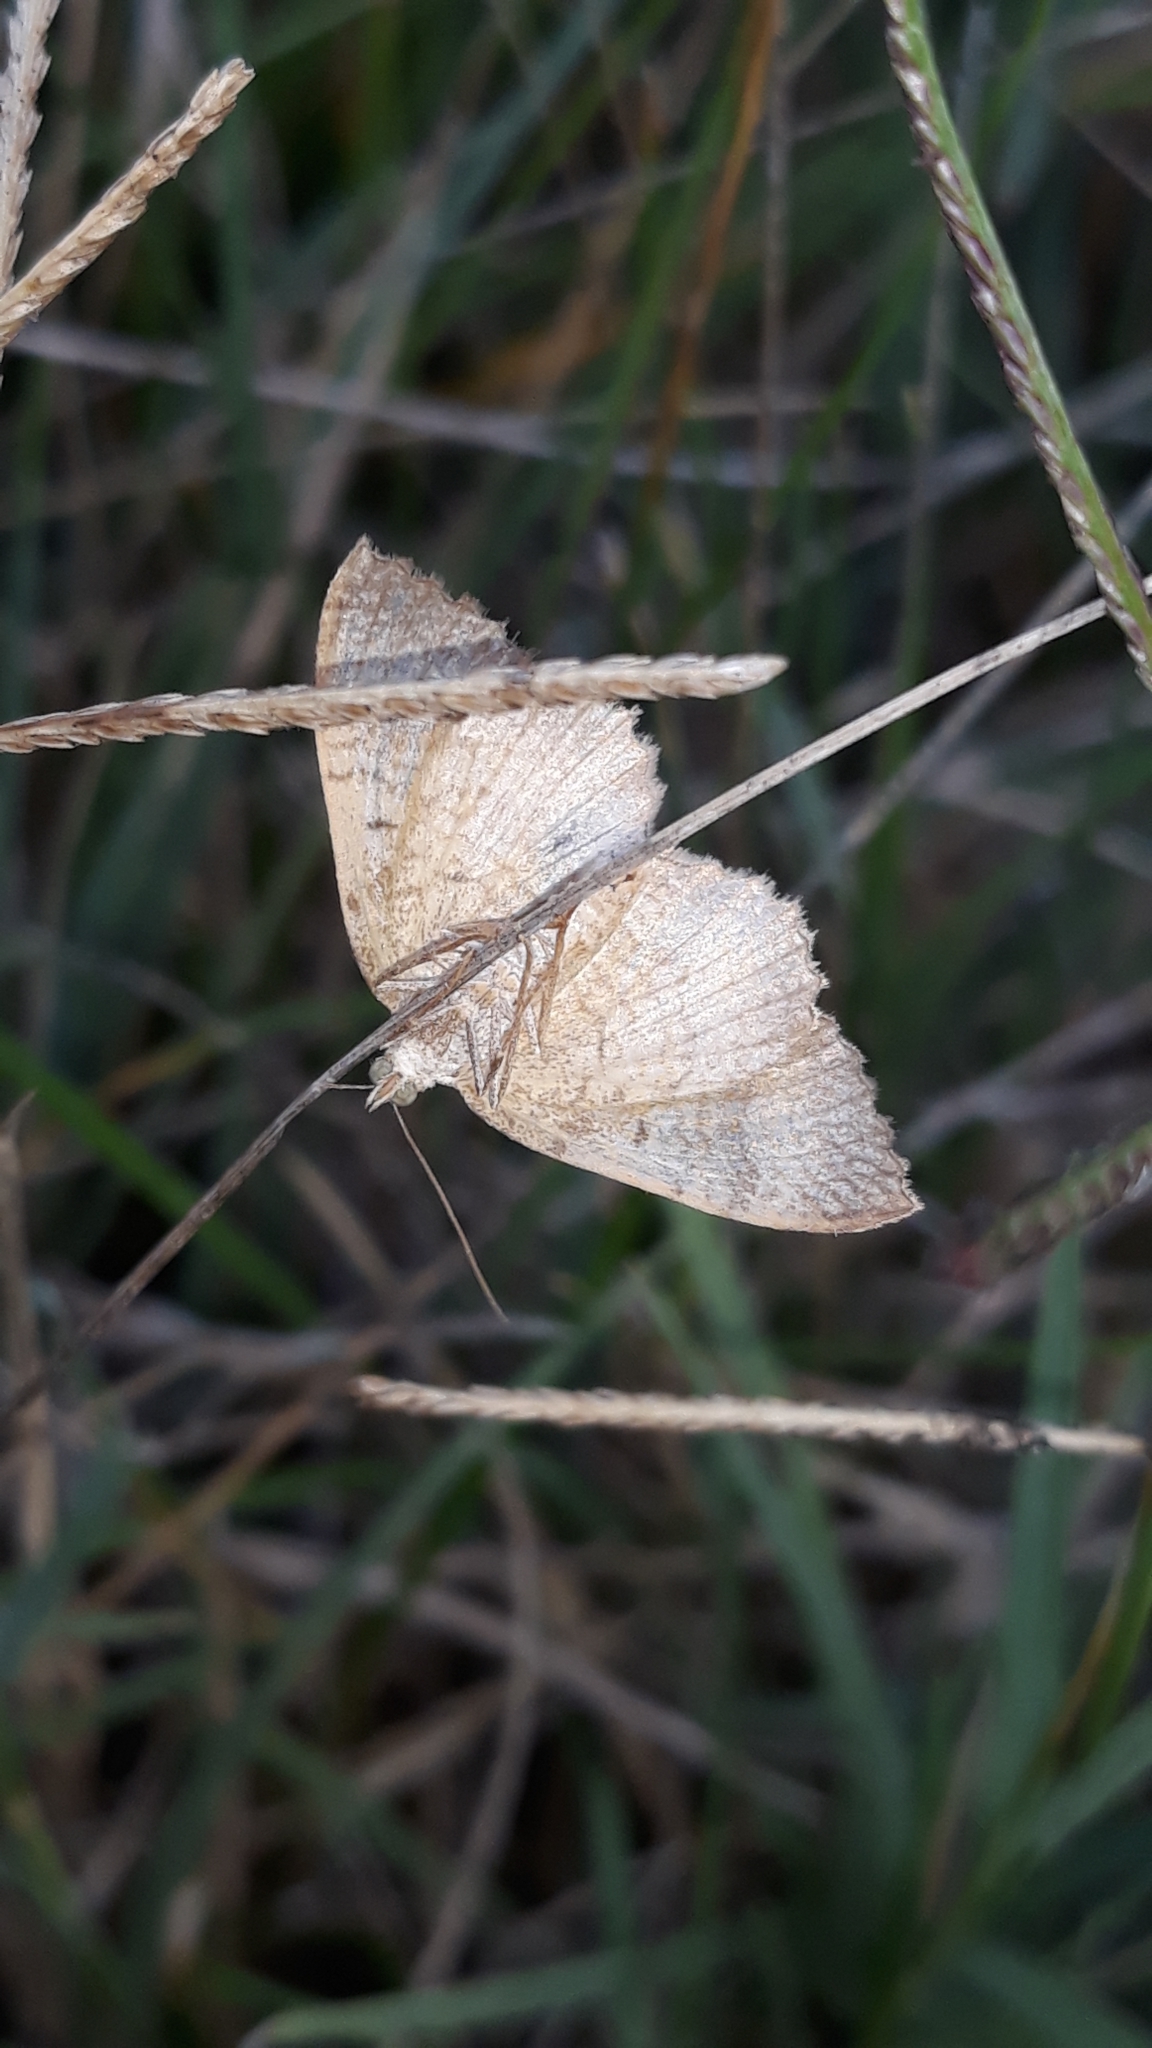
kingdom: Animalia
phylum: Arthropoda
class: Insecta
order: Lepidoptera
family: Geometridae
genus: Camptogramma
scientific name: Camptogramma bilineata
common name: Yellow shell
